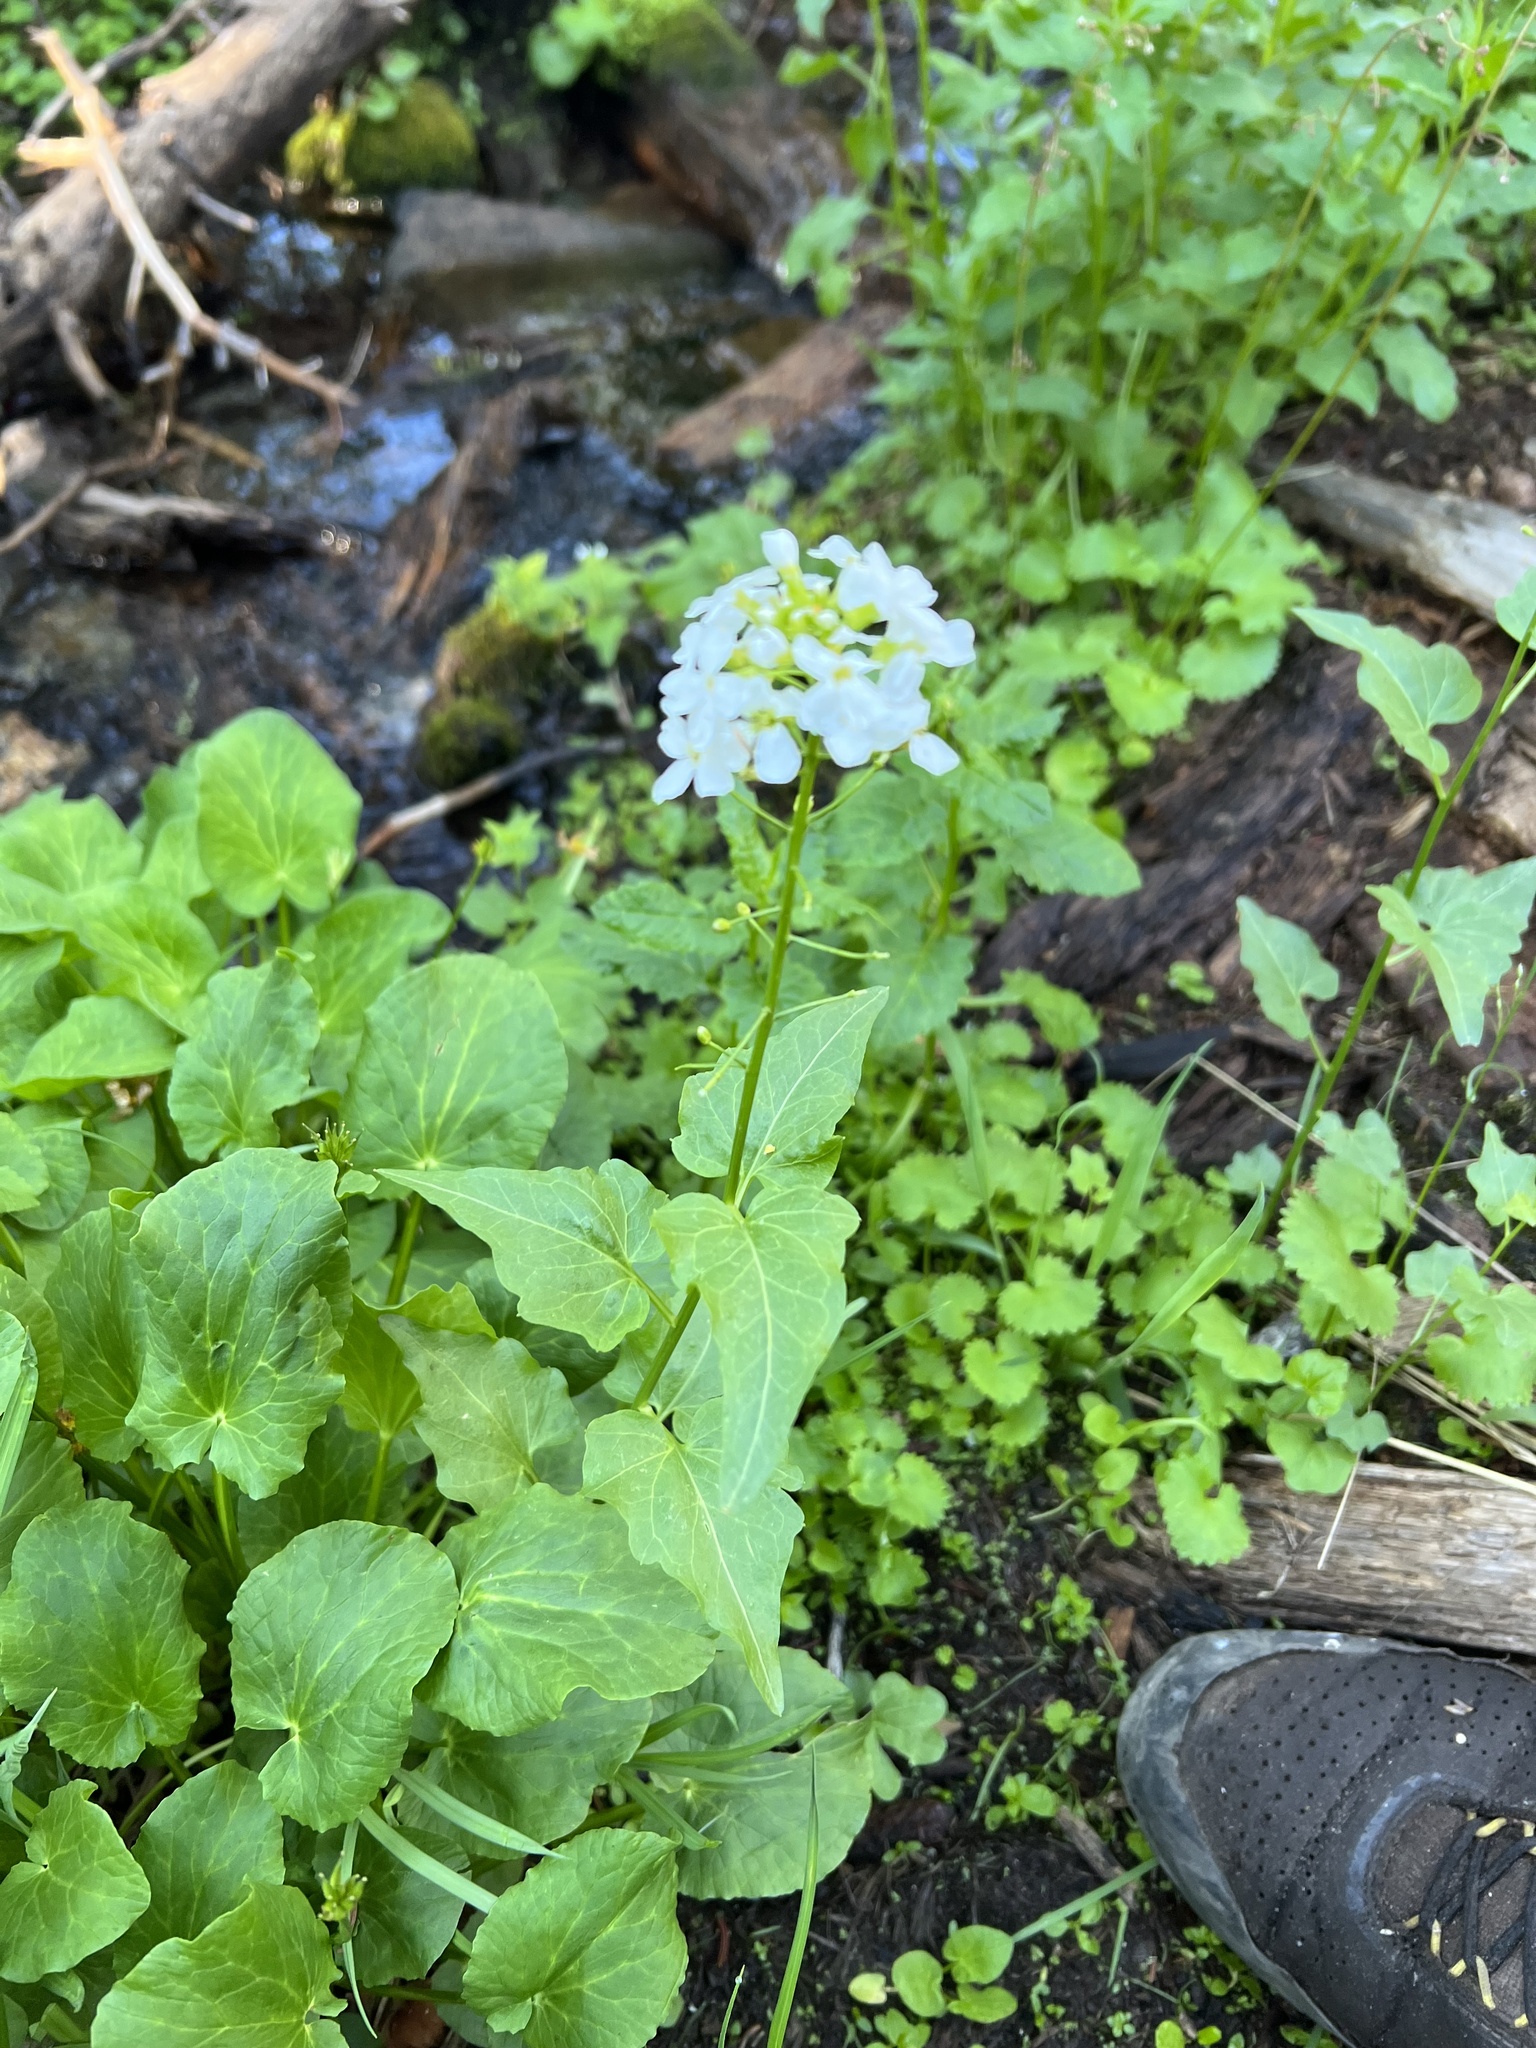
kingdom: Plantae
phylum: Tracheophyta
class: Magnoliopsida
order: Brassicales
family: Brassicaceae
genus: Cardamine
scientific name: Cardamine cordifolia
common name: Heart-leaf bittercress
